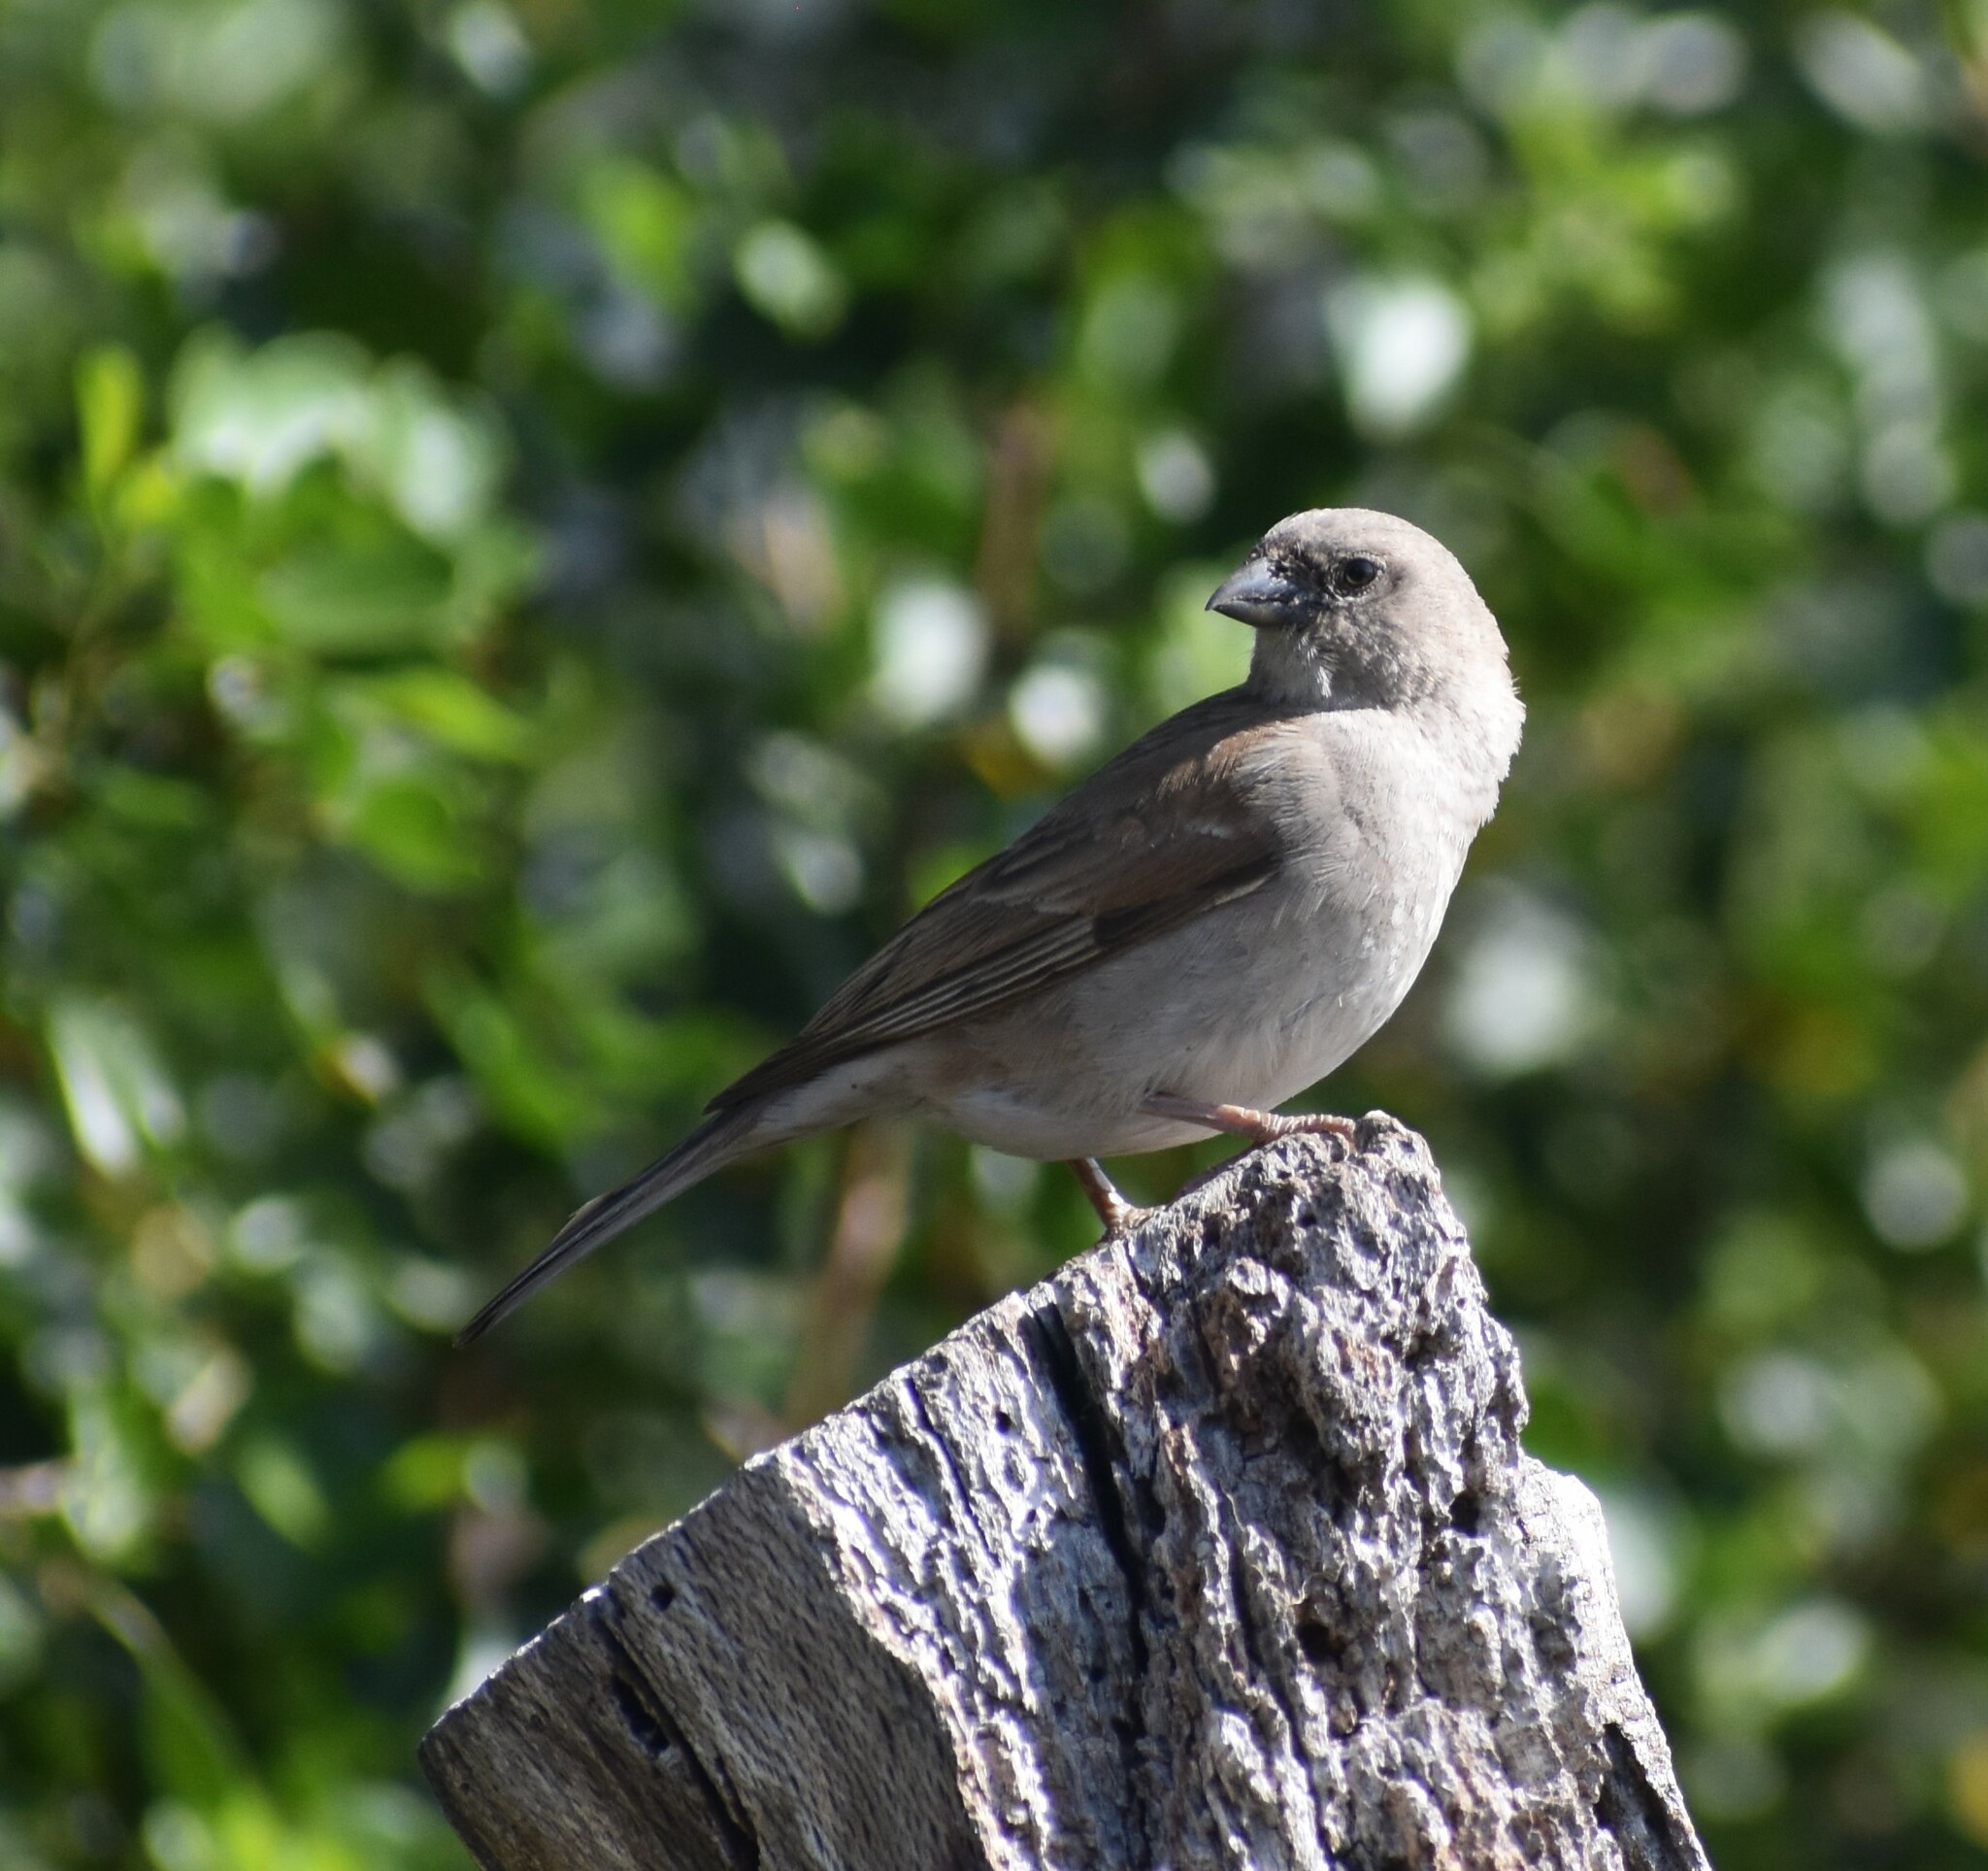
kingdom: Animalia
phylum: Chordata
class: Aves
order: Passeriformes
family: Passeridae
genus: Passer
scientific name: Passer diffusus
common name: Southern grey-headed sparrow
